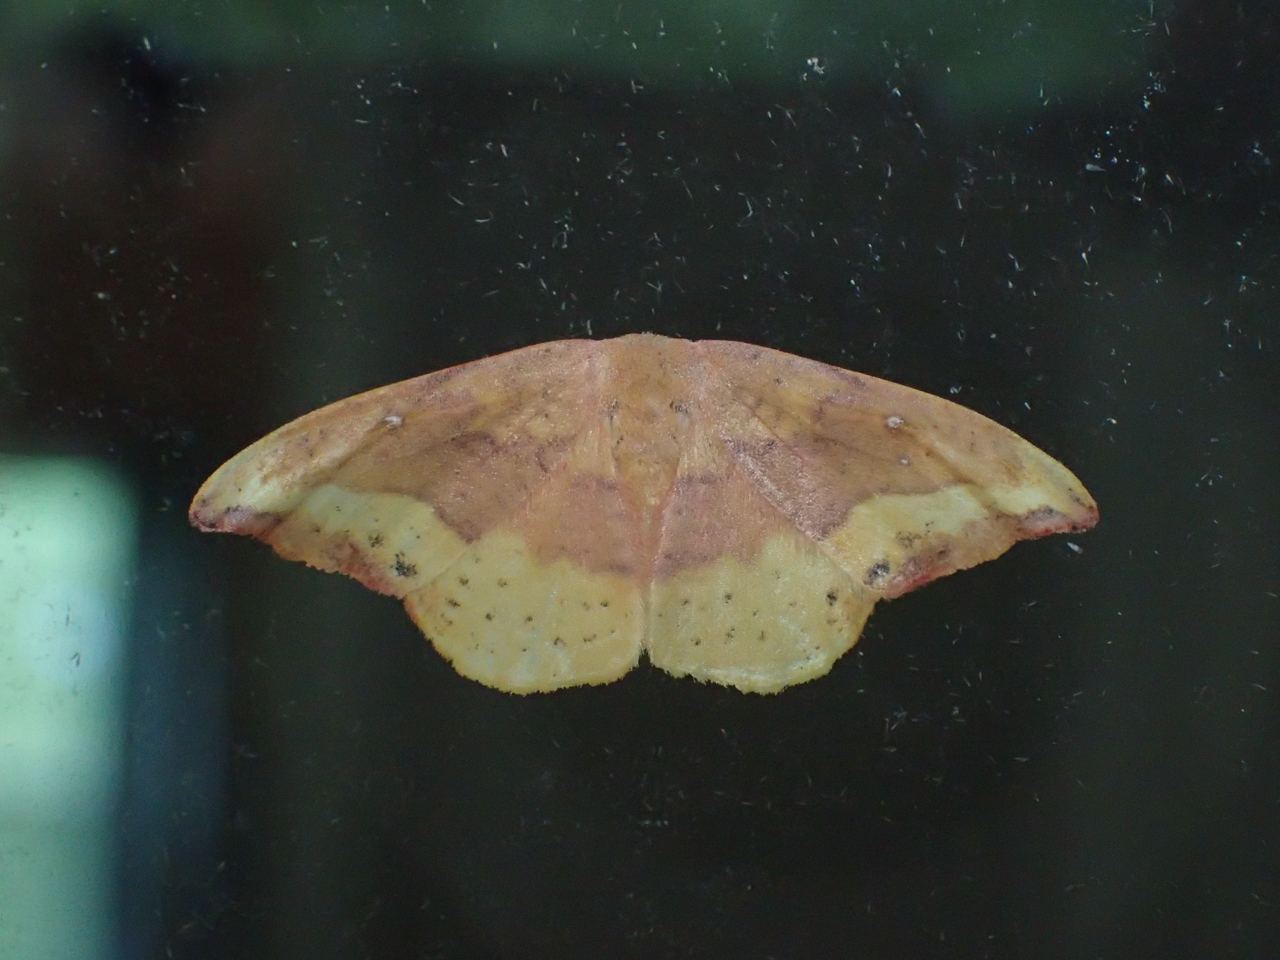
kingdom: Animalia
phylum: Arthropoda
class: Insecta
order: Lepidoptera
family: Drepanidae
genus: Oreta
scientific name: Oreta rosea
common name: Rose hooktip
